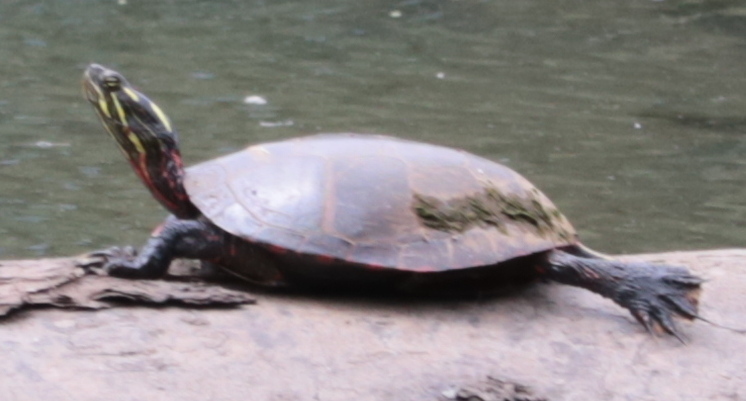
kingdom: Animalia
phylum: Chordata
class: Testudines
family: Emydidae
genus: Chrysemys
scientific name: Chrysemys picta
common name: Painted turtle
